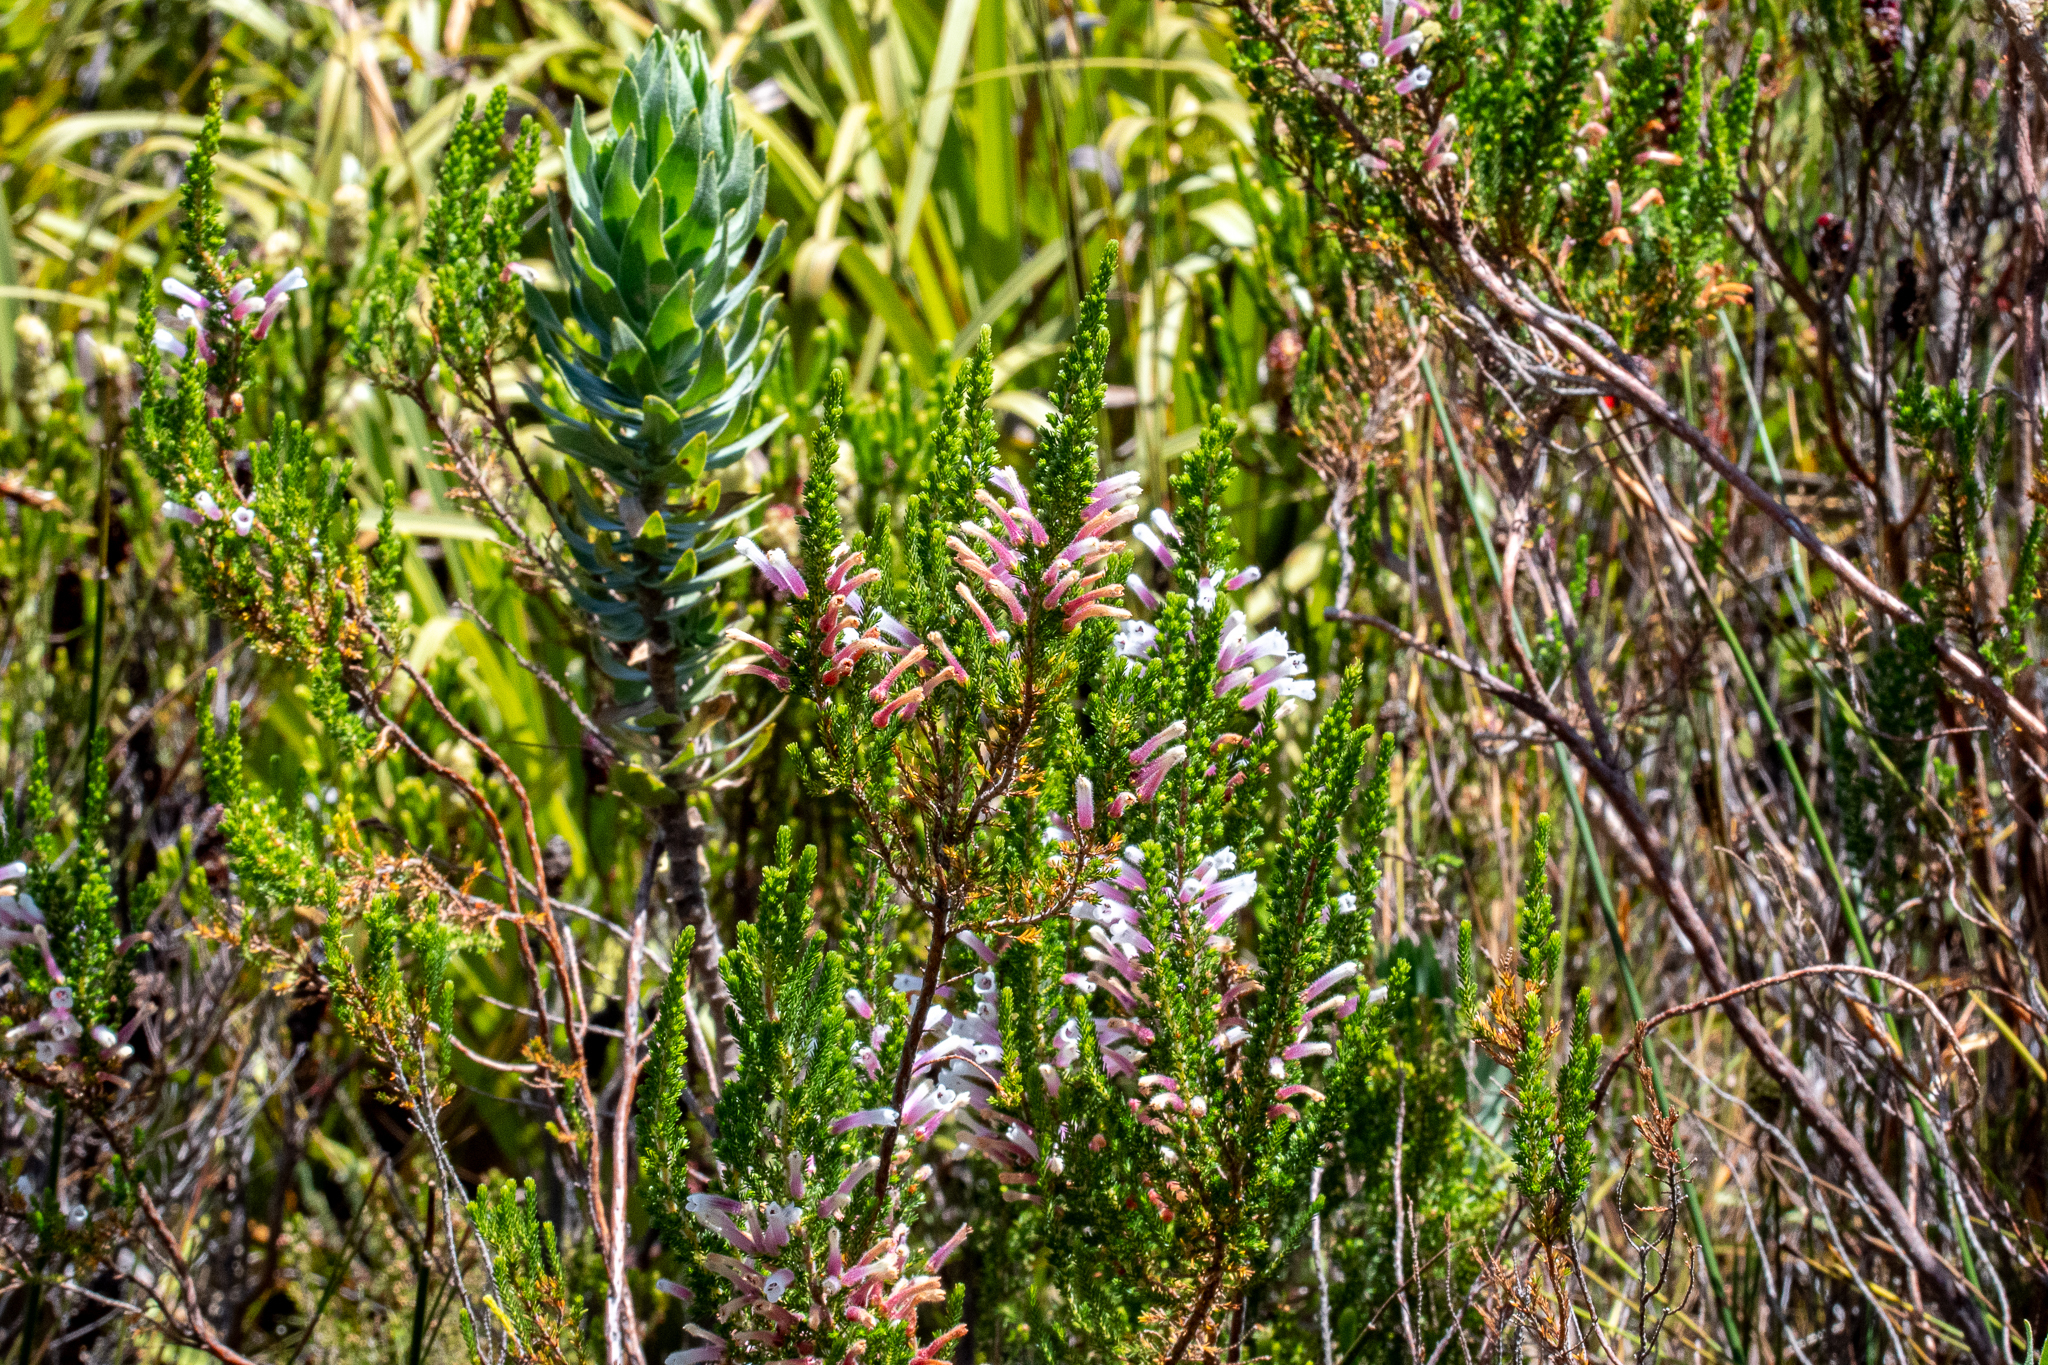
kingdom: Plantae
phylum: Tracheophyta
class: Magnoliopsida
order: Ericales
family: Ericaceae
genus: Erica
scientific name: Erica perspicua
